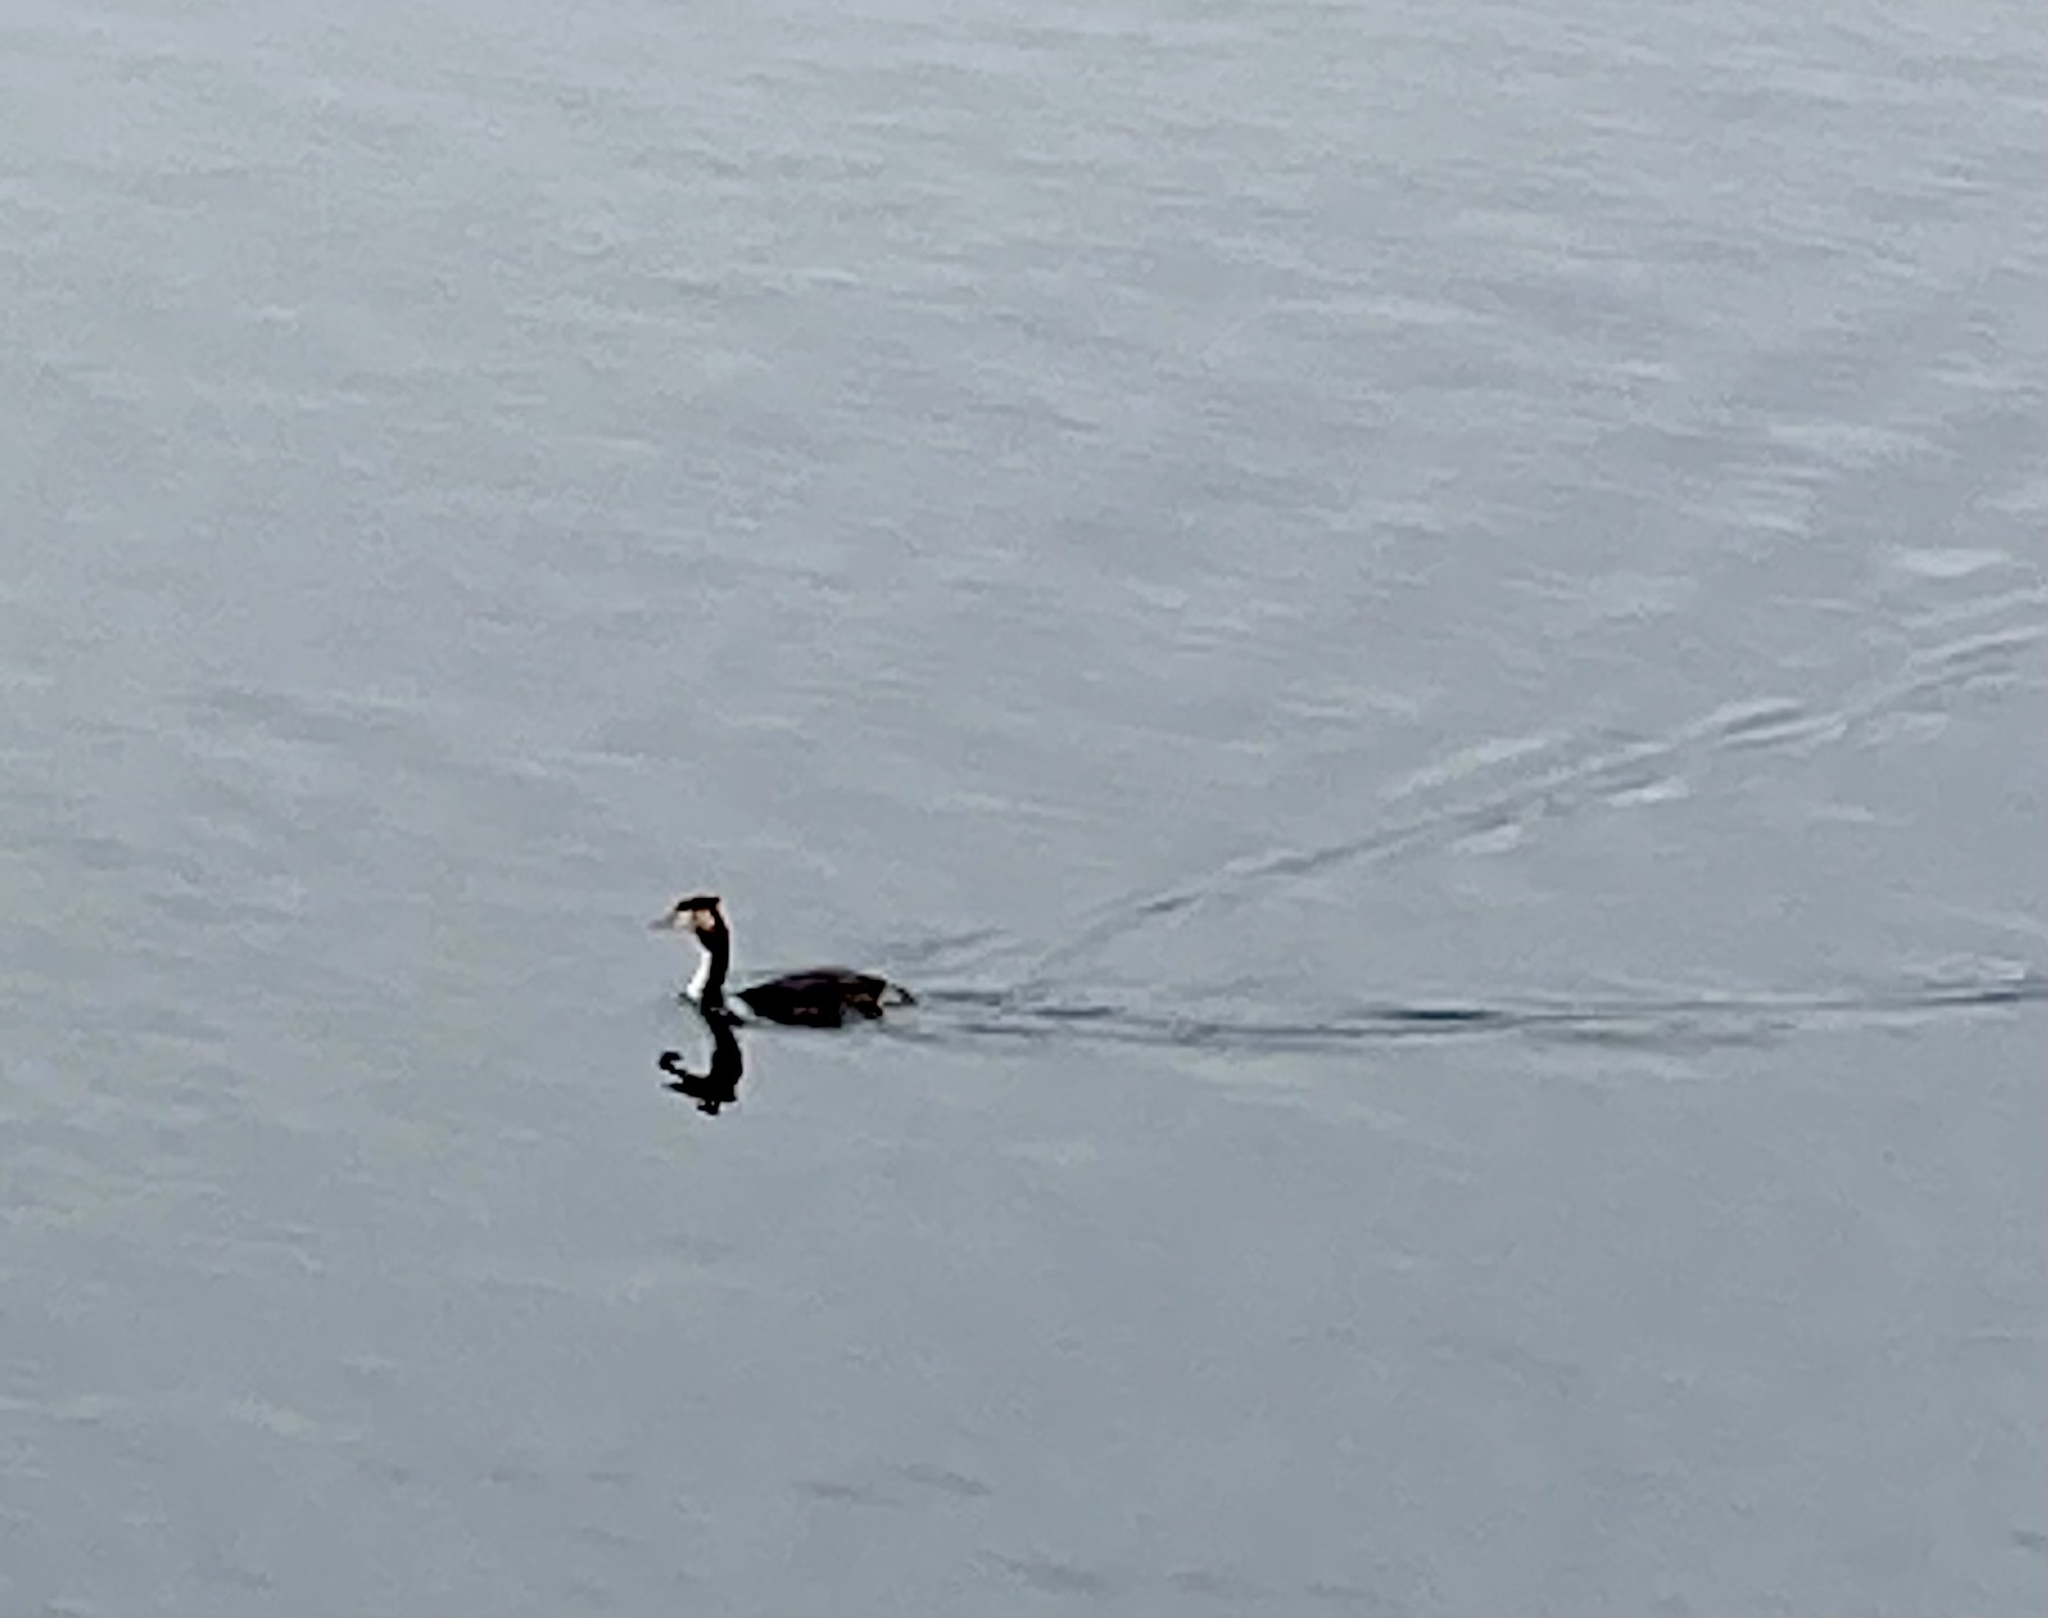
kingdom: Animalia
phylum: Chordata
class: Aves
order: Podicipediformes
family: Podicipedidae
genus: Podiceps
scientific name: Podiceps cristatus
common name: Great crested grebe
